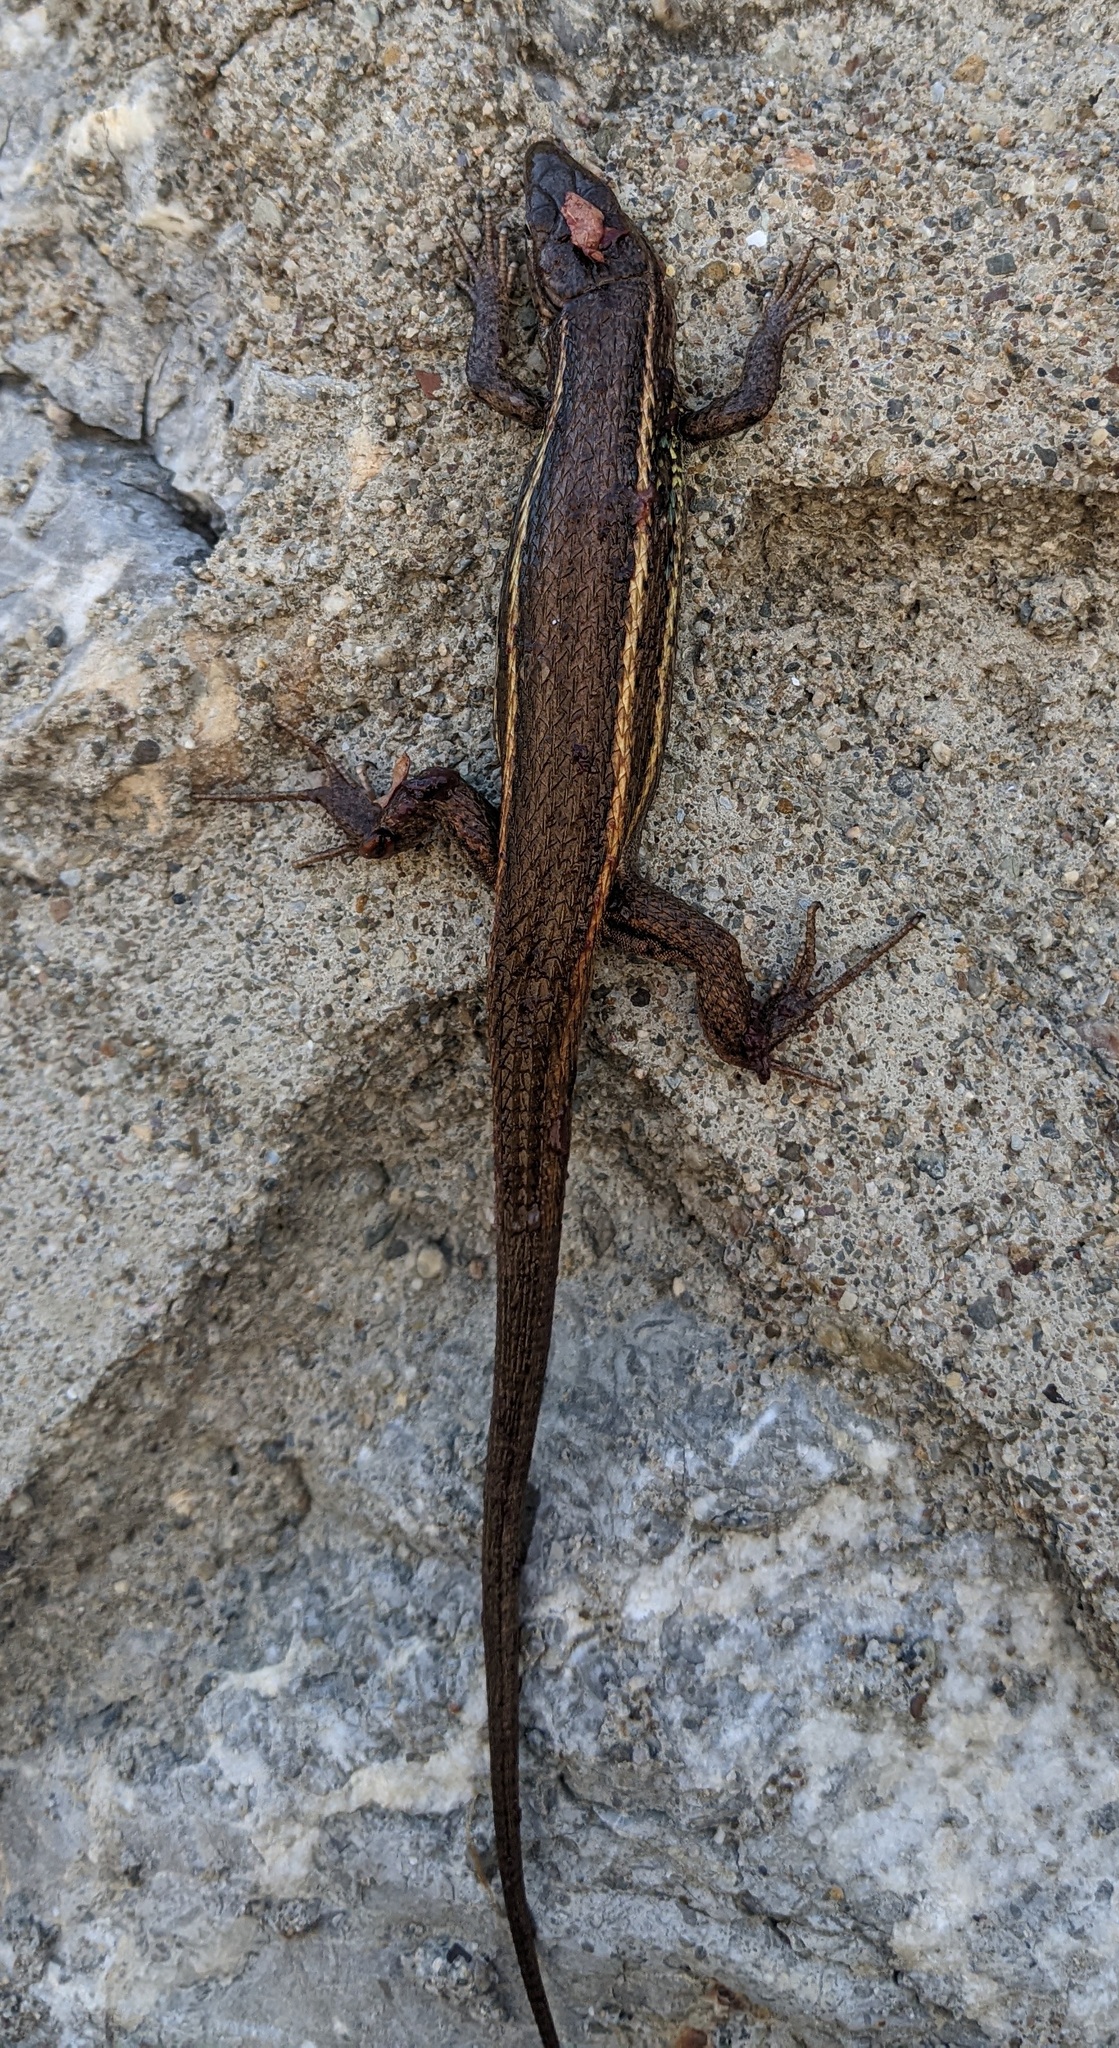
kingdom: Animalia
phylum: Chordata
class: Squamata
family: Lacertidae
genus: Psammodromus
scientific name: Psammodromus algirus
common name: Algerian psammodromus
